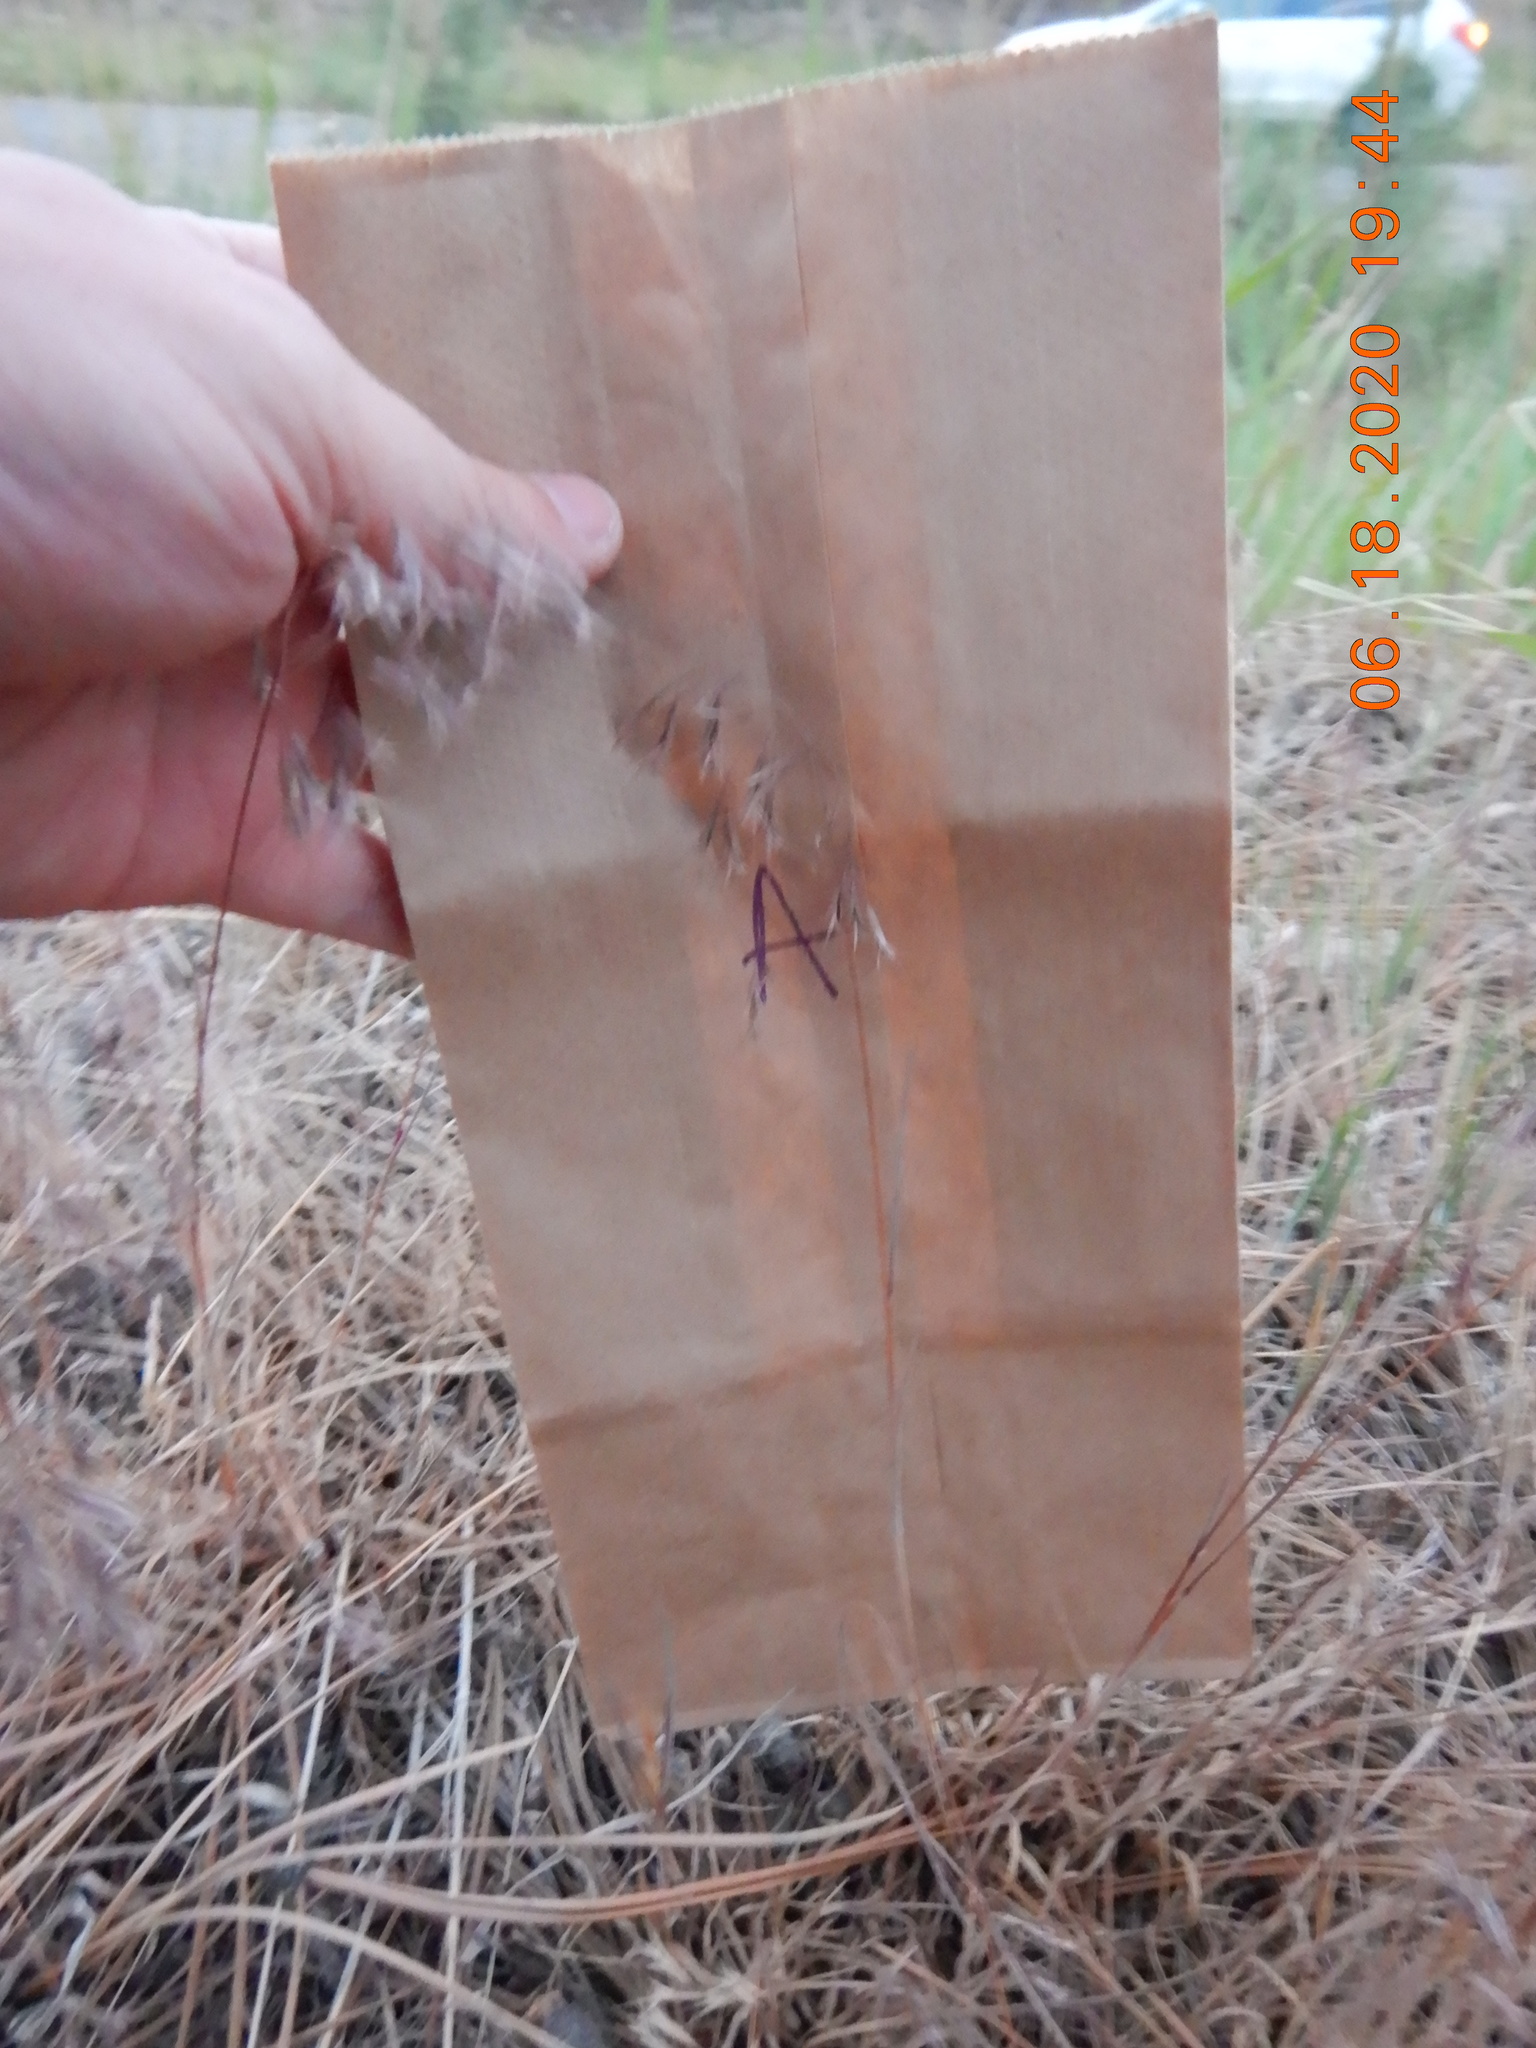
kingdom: Plantae
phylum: Tracheophyta
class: Liliopsida
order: Poales
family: Poaceae
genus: Bromus
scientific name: Bromus tectorum
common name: Cheatgrass
